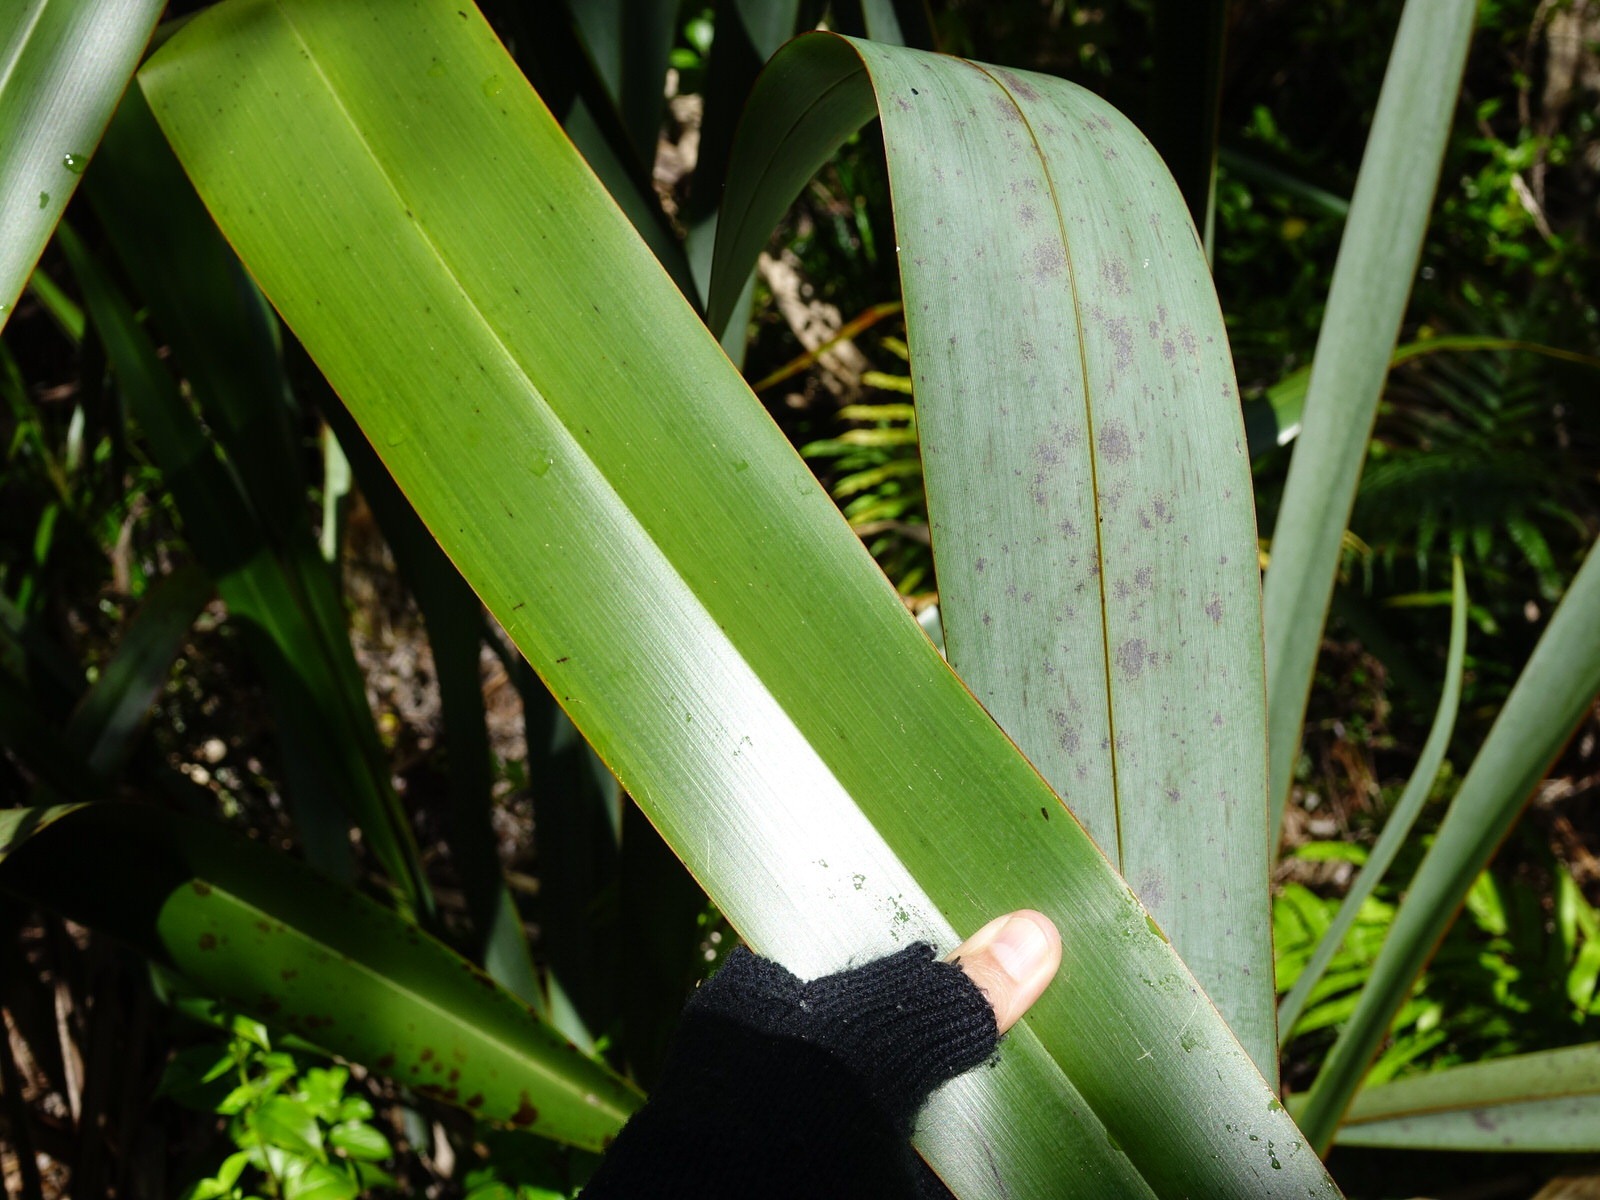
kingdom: Plantae
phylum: Tracheophyta
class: Liliopsida
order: Asparagales
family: Asphodelaceae
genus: Phormium
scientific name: Phormium tenax
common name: New zealand flax
